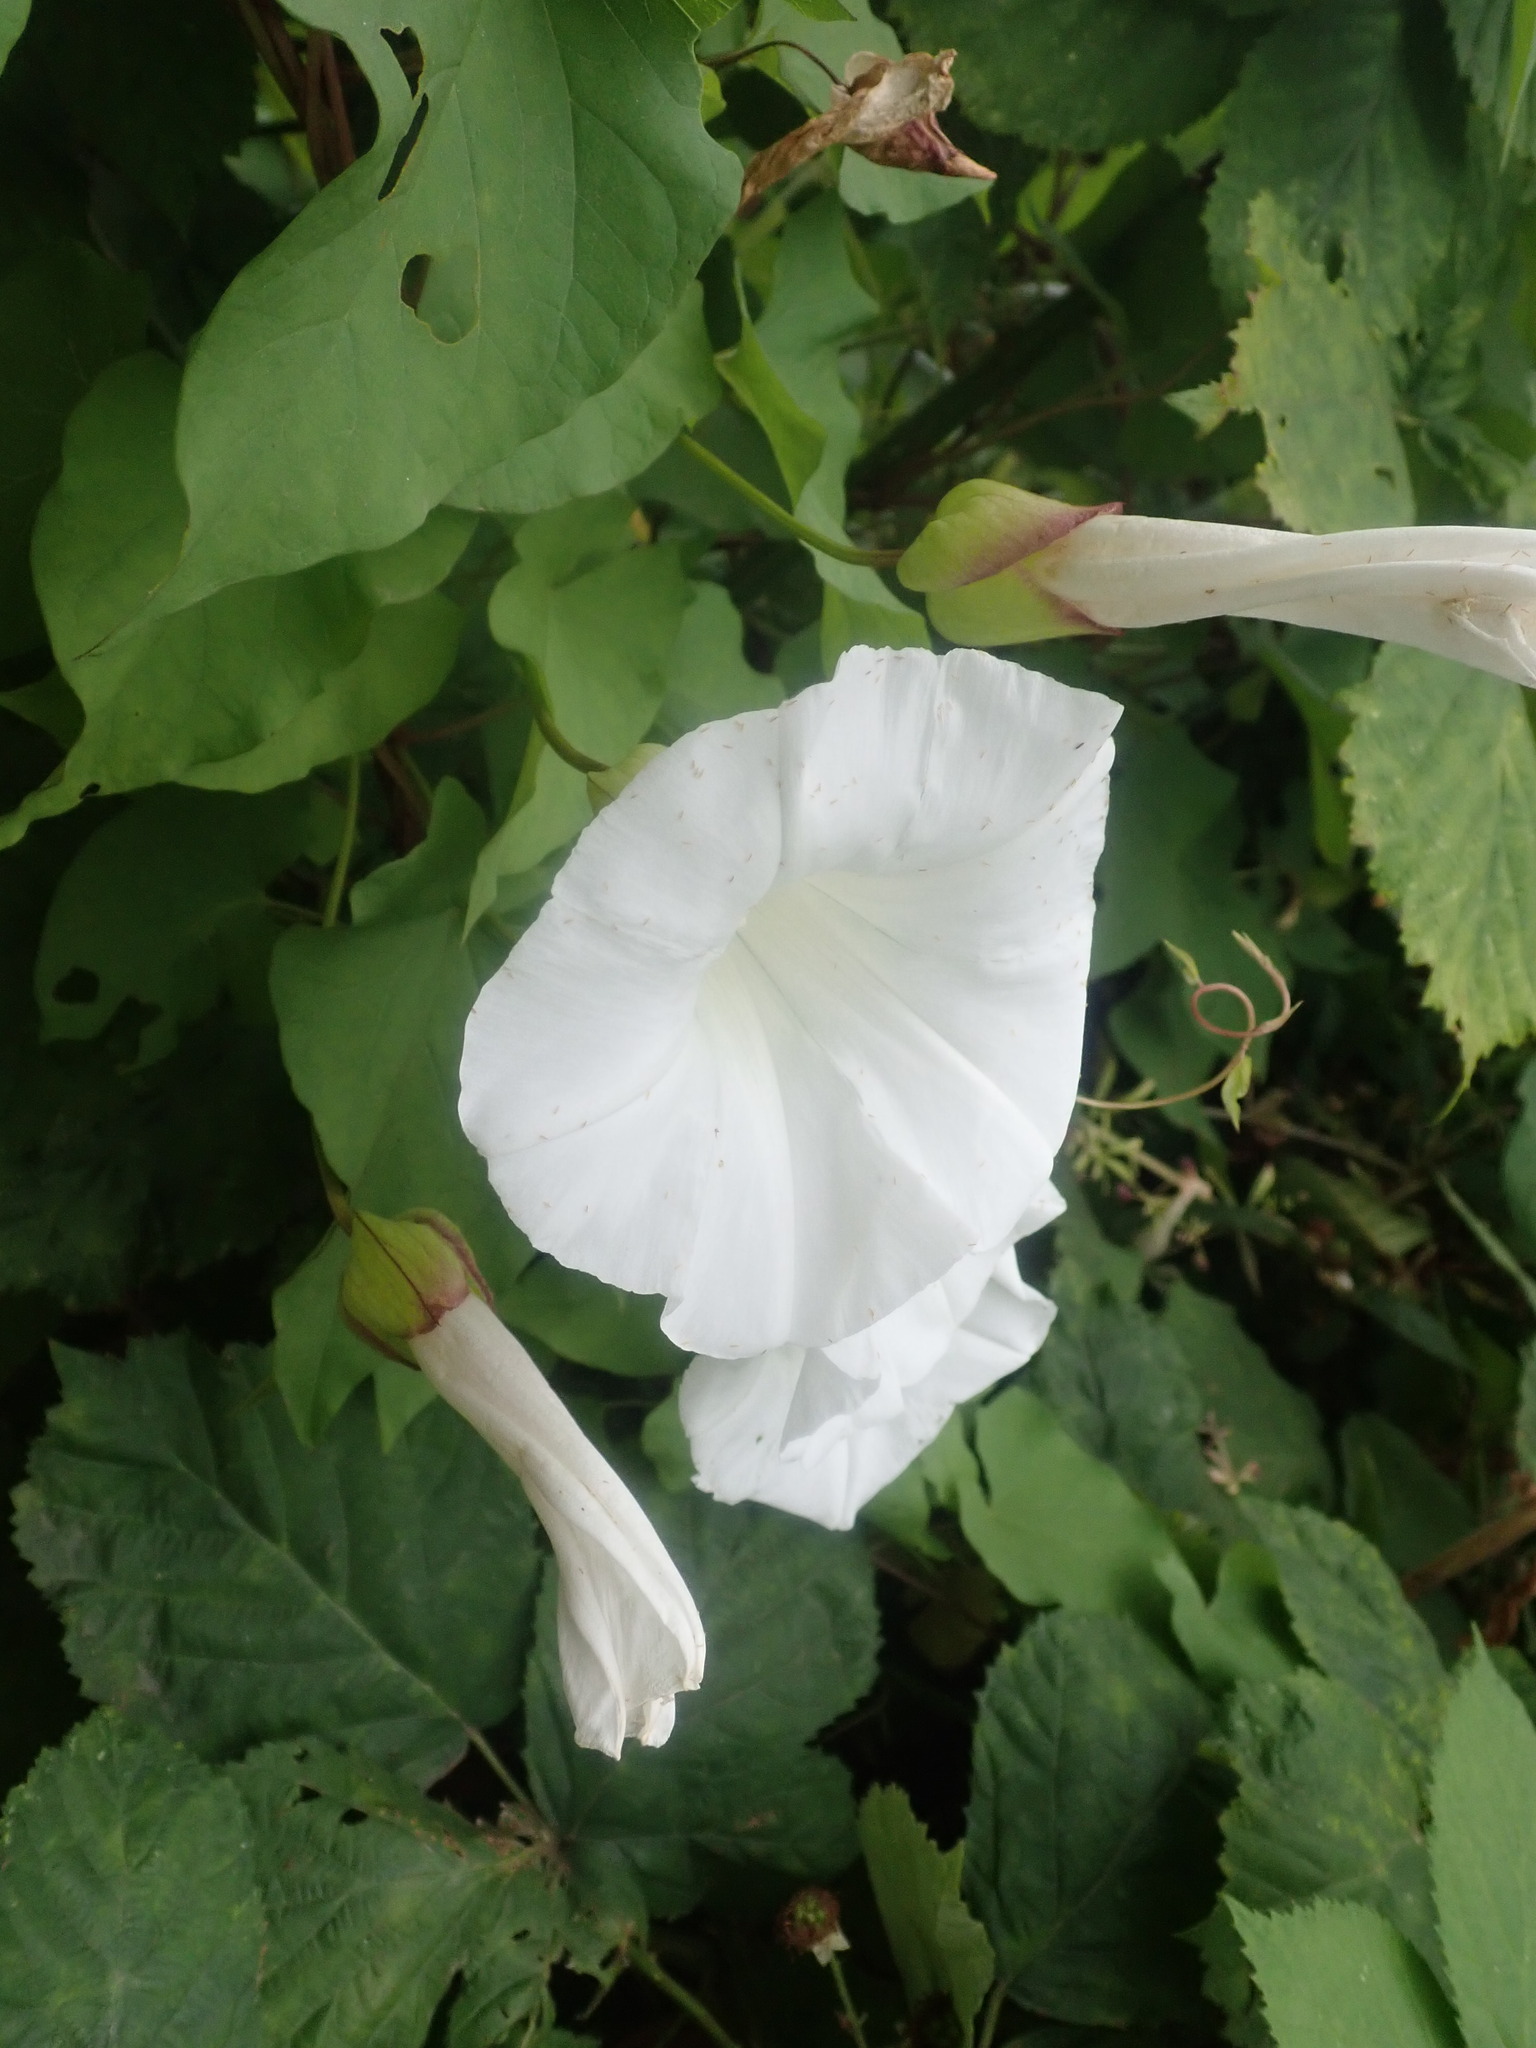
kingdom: Plantae
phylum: Tracheophyta
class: Magnoliopsida
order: Solanales
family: Convolvulaceae
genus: Calystegia
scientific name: Calystegia silvatica
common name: Large bindweed
